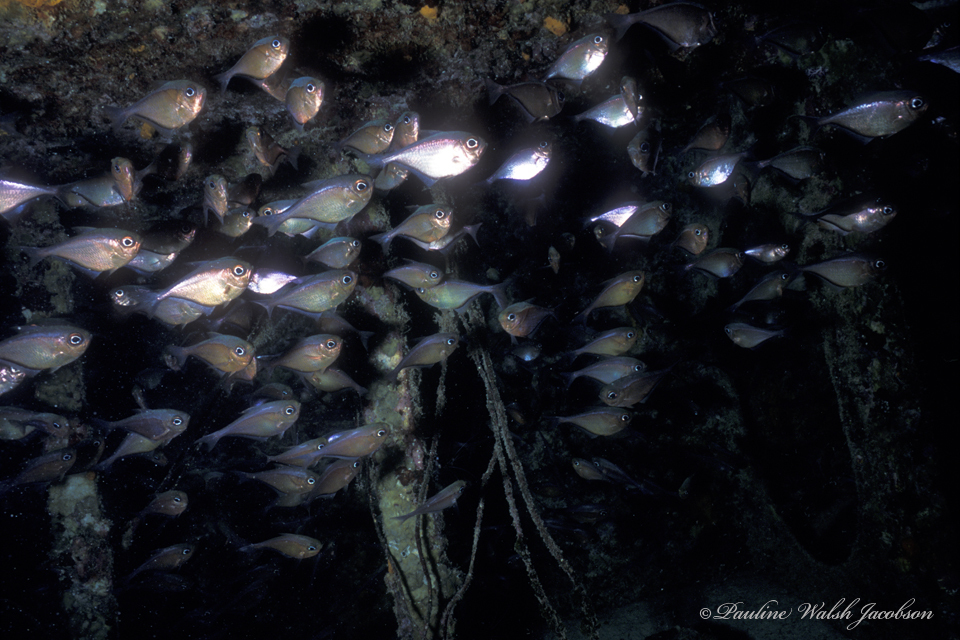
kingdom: Animalia
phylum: Chordata
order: Perciformes
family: Pempheridae
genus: Pempheris
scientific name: Pempheris schomburgkii
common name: Glassy sweeper
